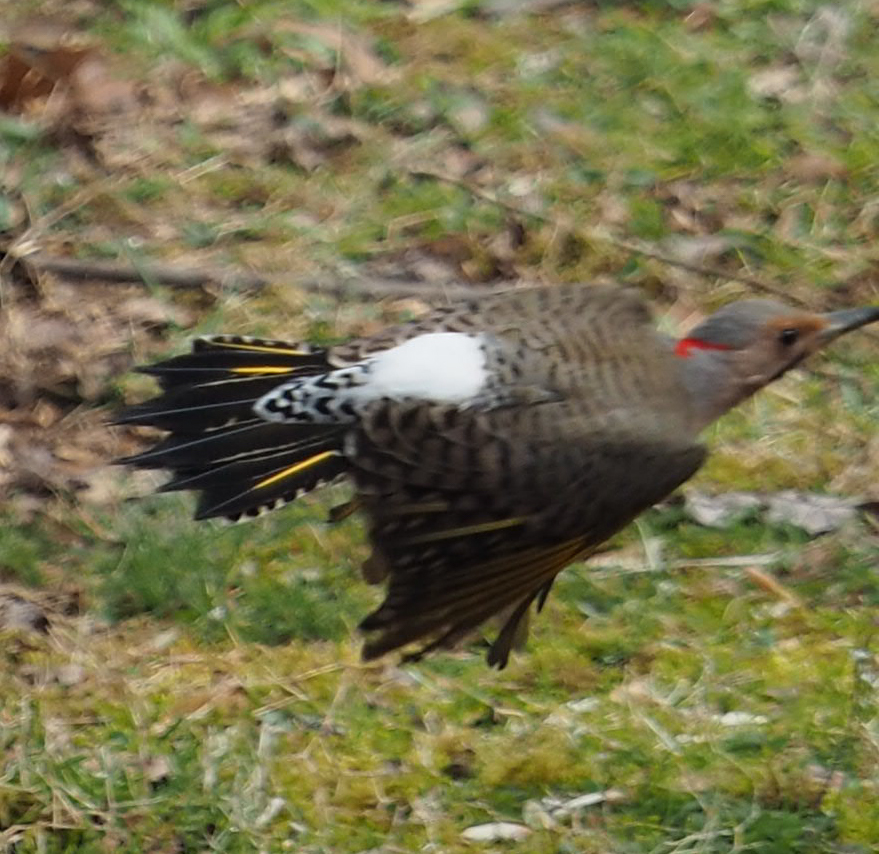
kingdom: Animalia
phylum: Chordata
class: Aves
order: Piciformes
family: Picidae
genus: Colaptes
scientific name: Colaptes auratus
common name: Northern flicker
